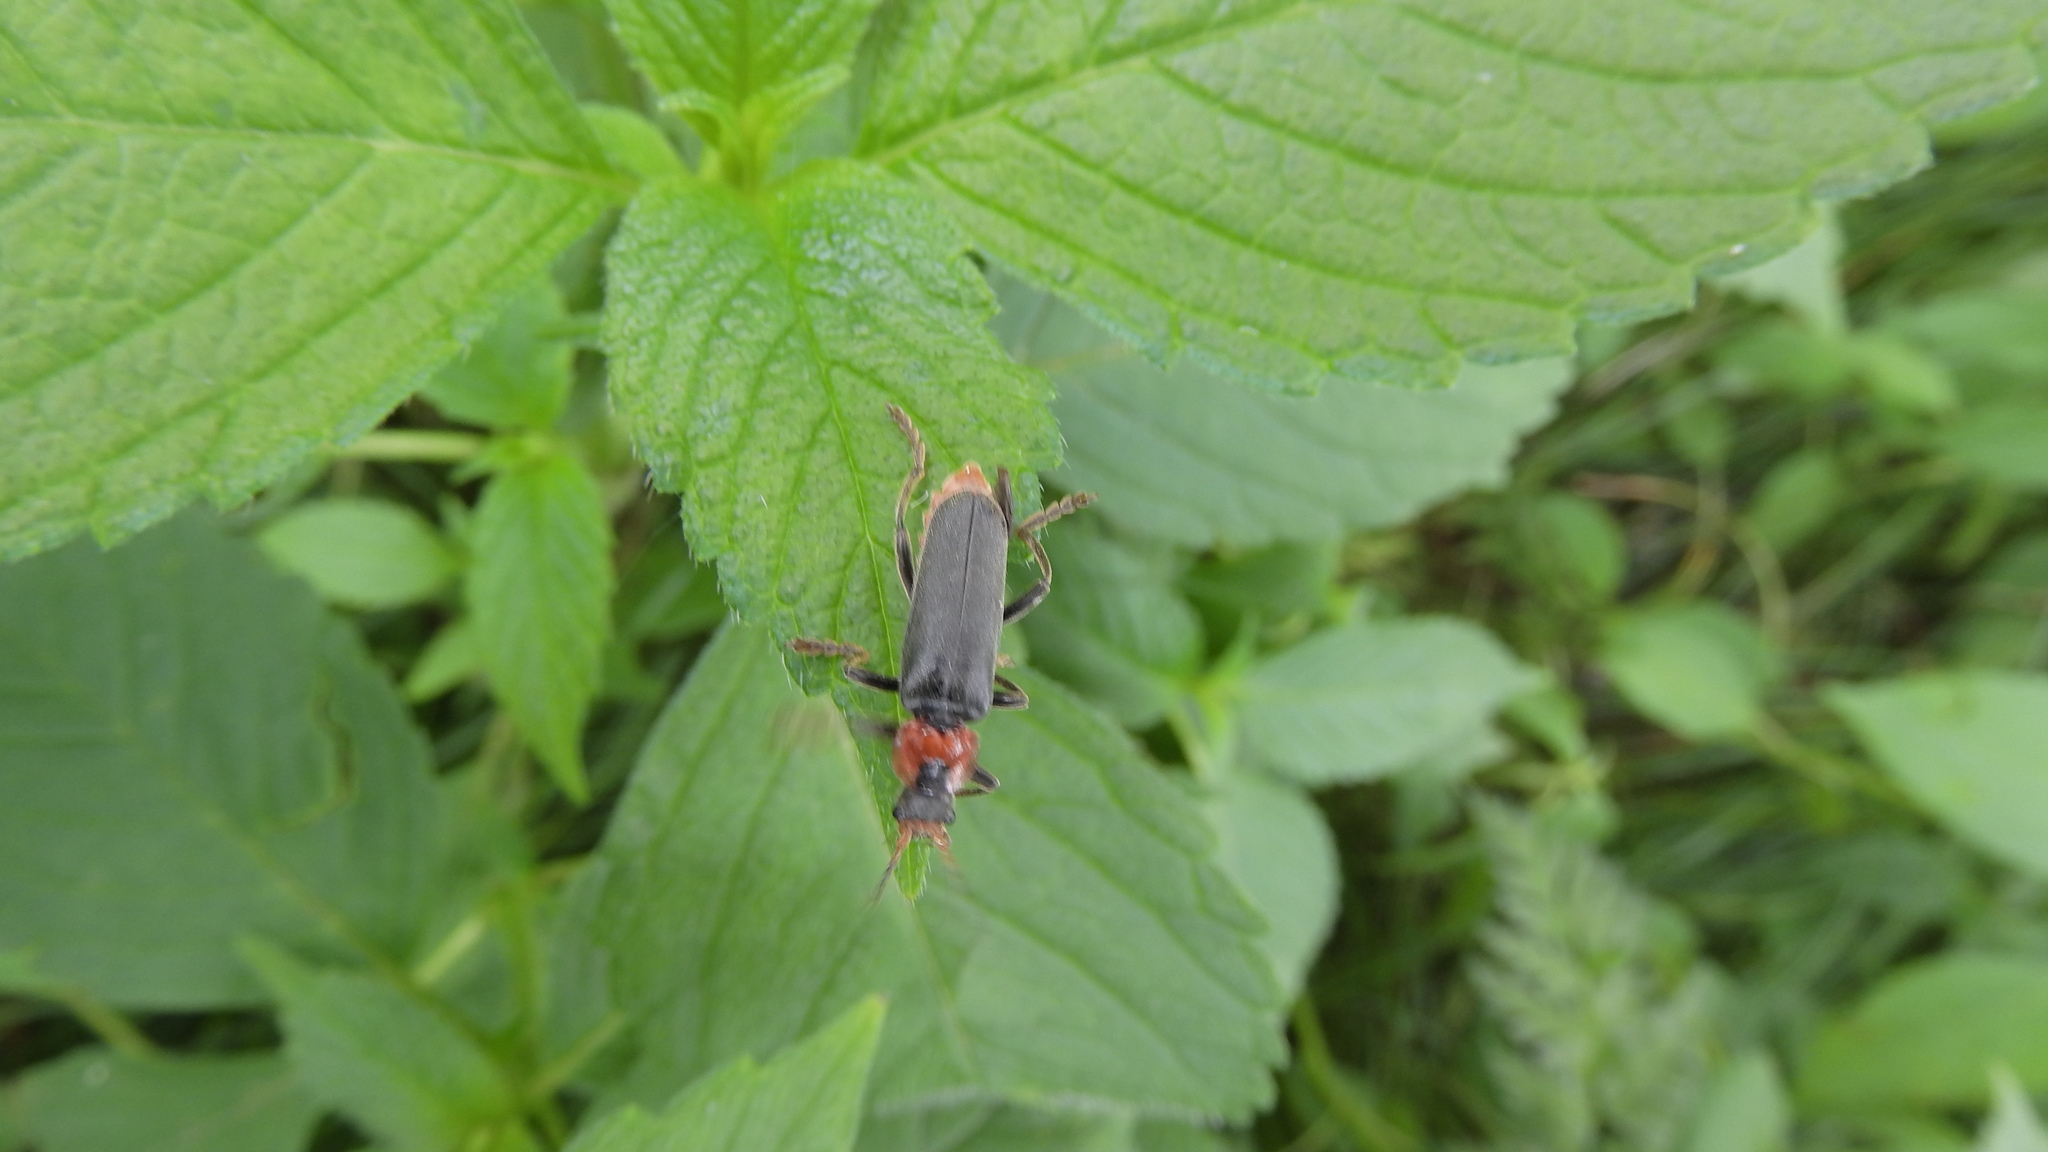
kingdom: Animalia
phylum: Arthropoda
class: Insecta
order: Coleoptera
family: Cantharidae
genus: Cantharis
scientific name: Cantharis fusca
